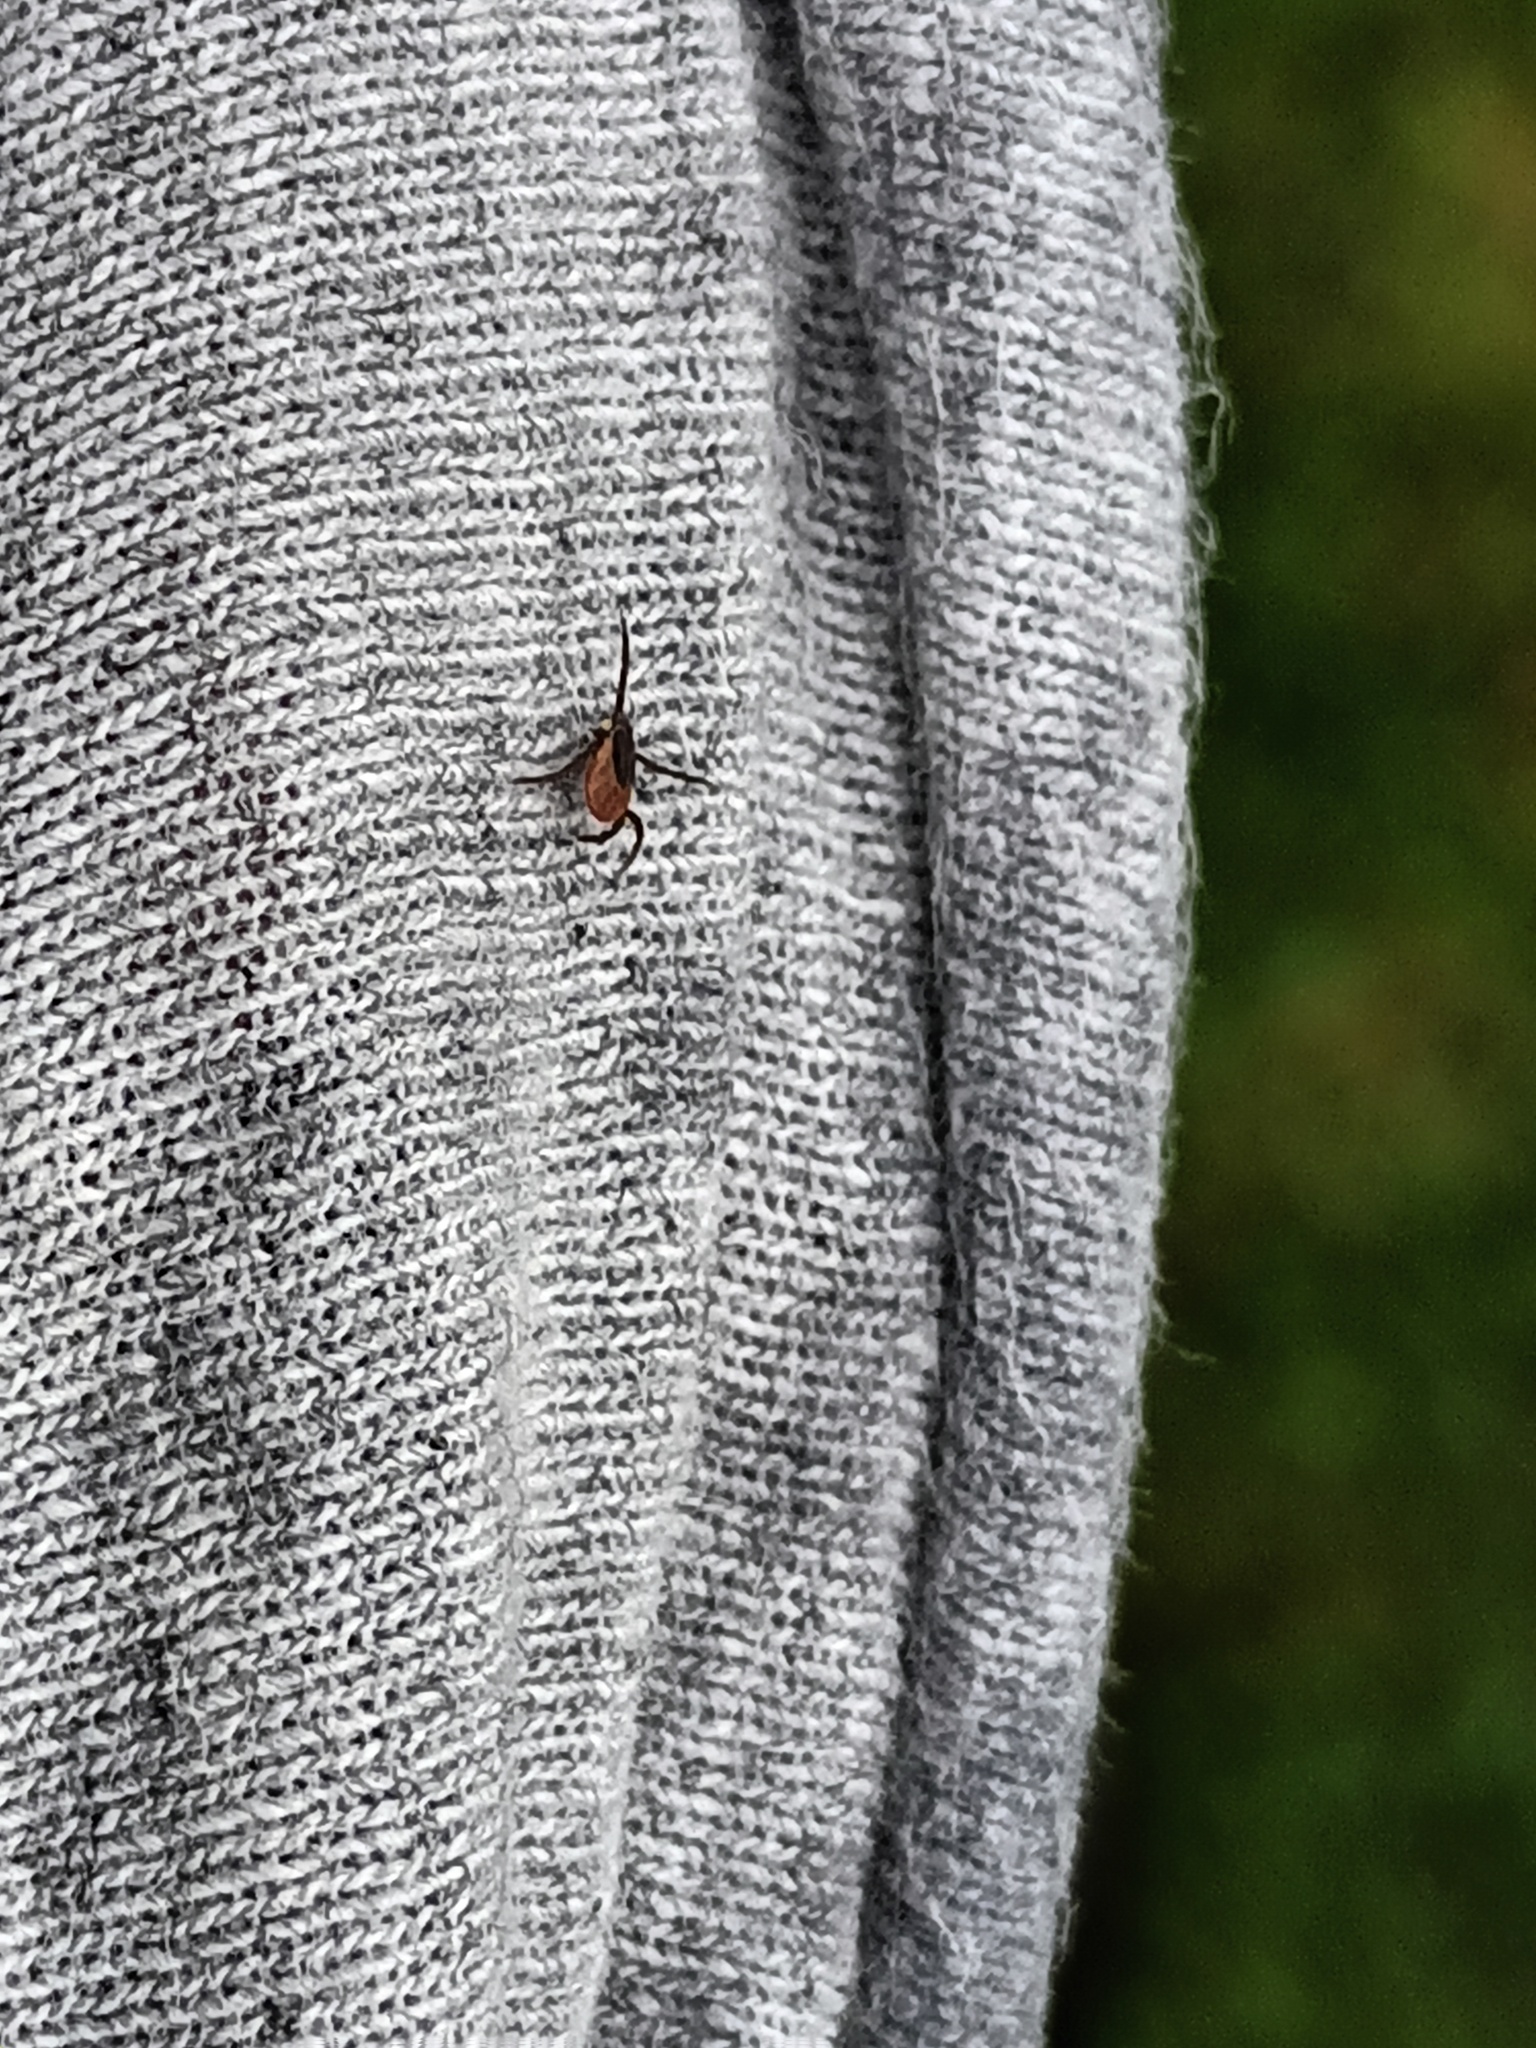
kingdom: Animalia
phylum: Arthropoda
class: Arachnida
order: Ixodida
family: Ixodidae
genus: Ixodes
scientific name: Ixodes ricinus
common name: Castor bean tick
